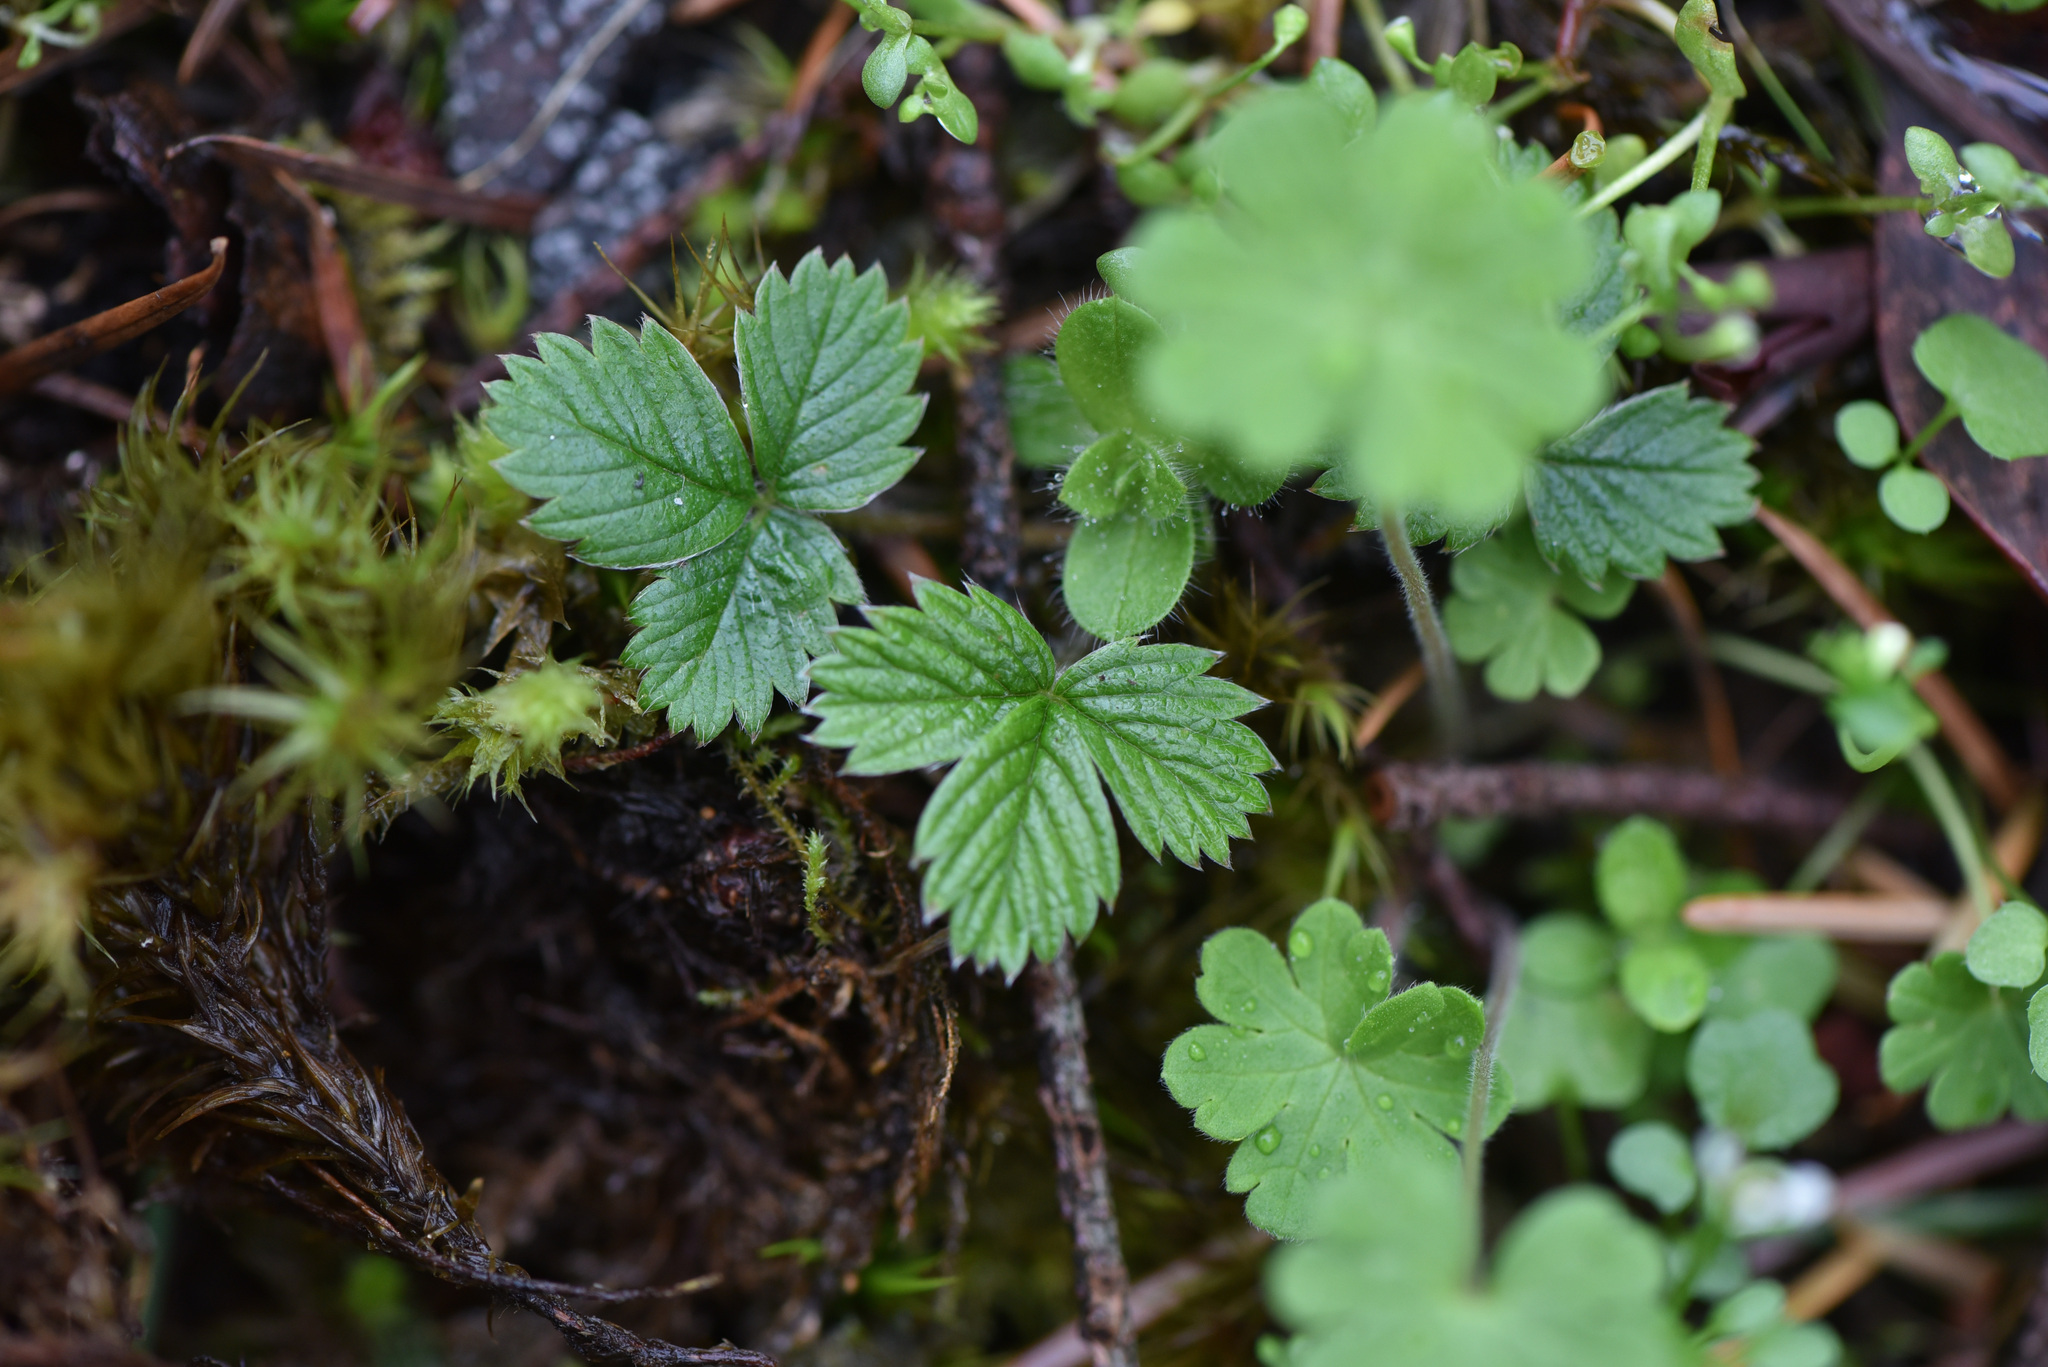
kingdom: Plantae
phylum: Tracheophyta
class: Magnoliopsida
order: Rosales
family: Rosaceae
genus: Fragaria
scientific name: Fragaria vesca
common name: Wild strawberry
